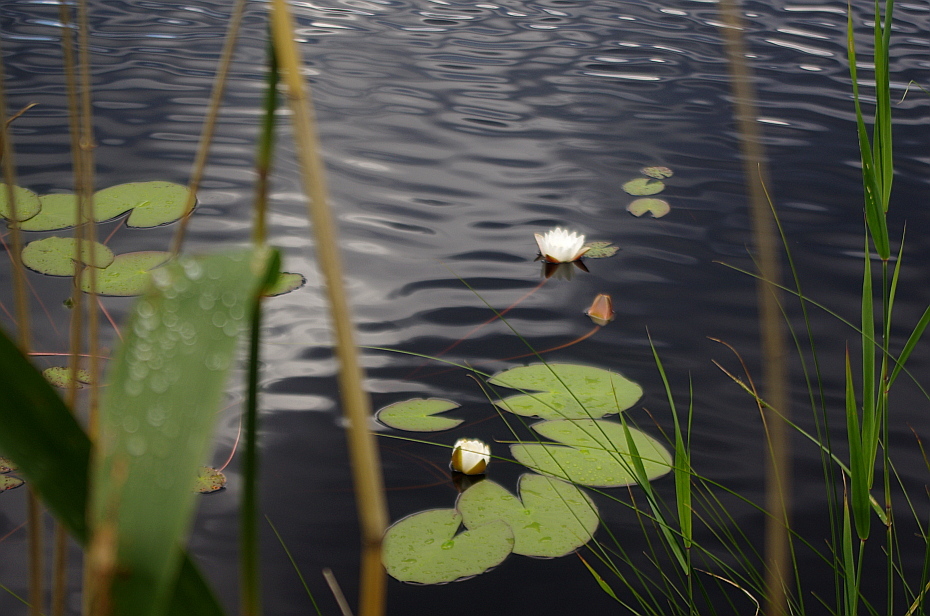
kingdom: Plantae
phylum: Tracheophyta
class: Magnoliopsida
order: Nymphaeales
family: Nymphaeaceae
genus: Nymphaea
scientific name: Nymphaea candida
